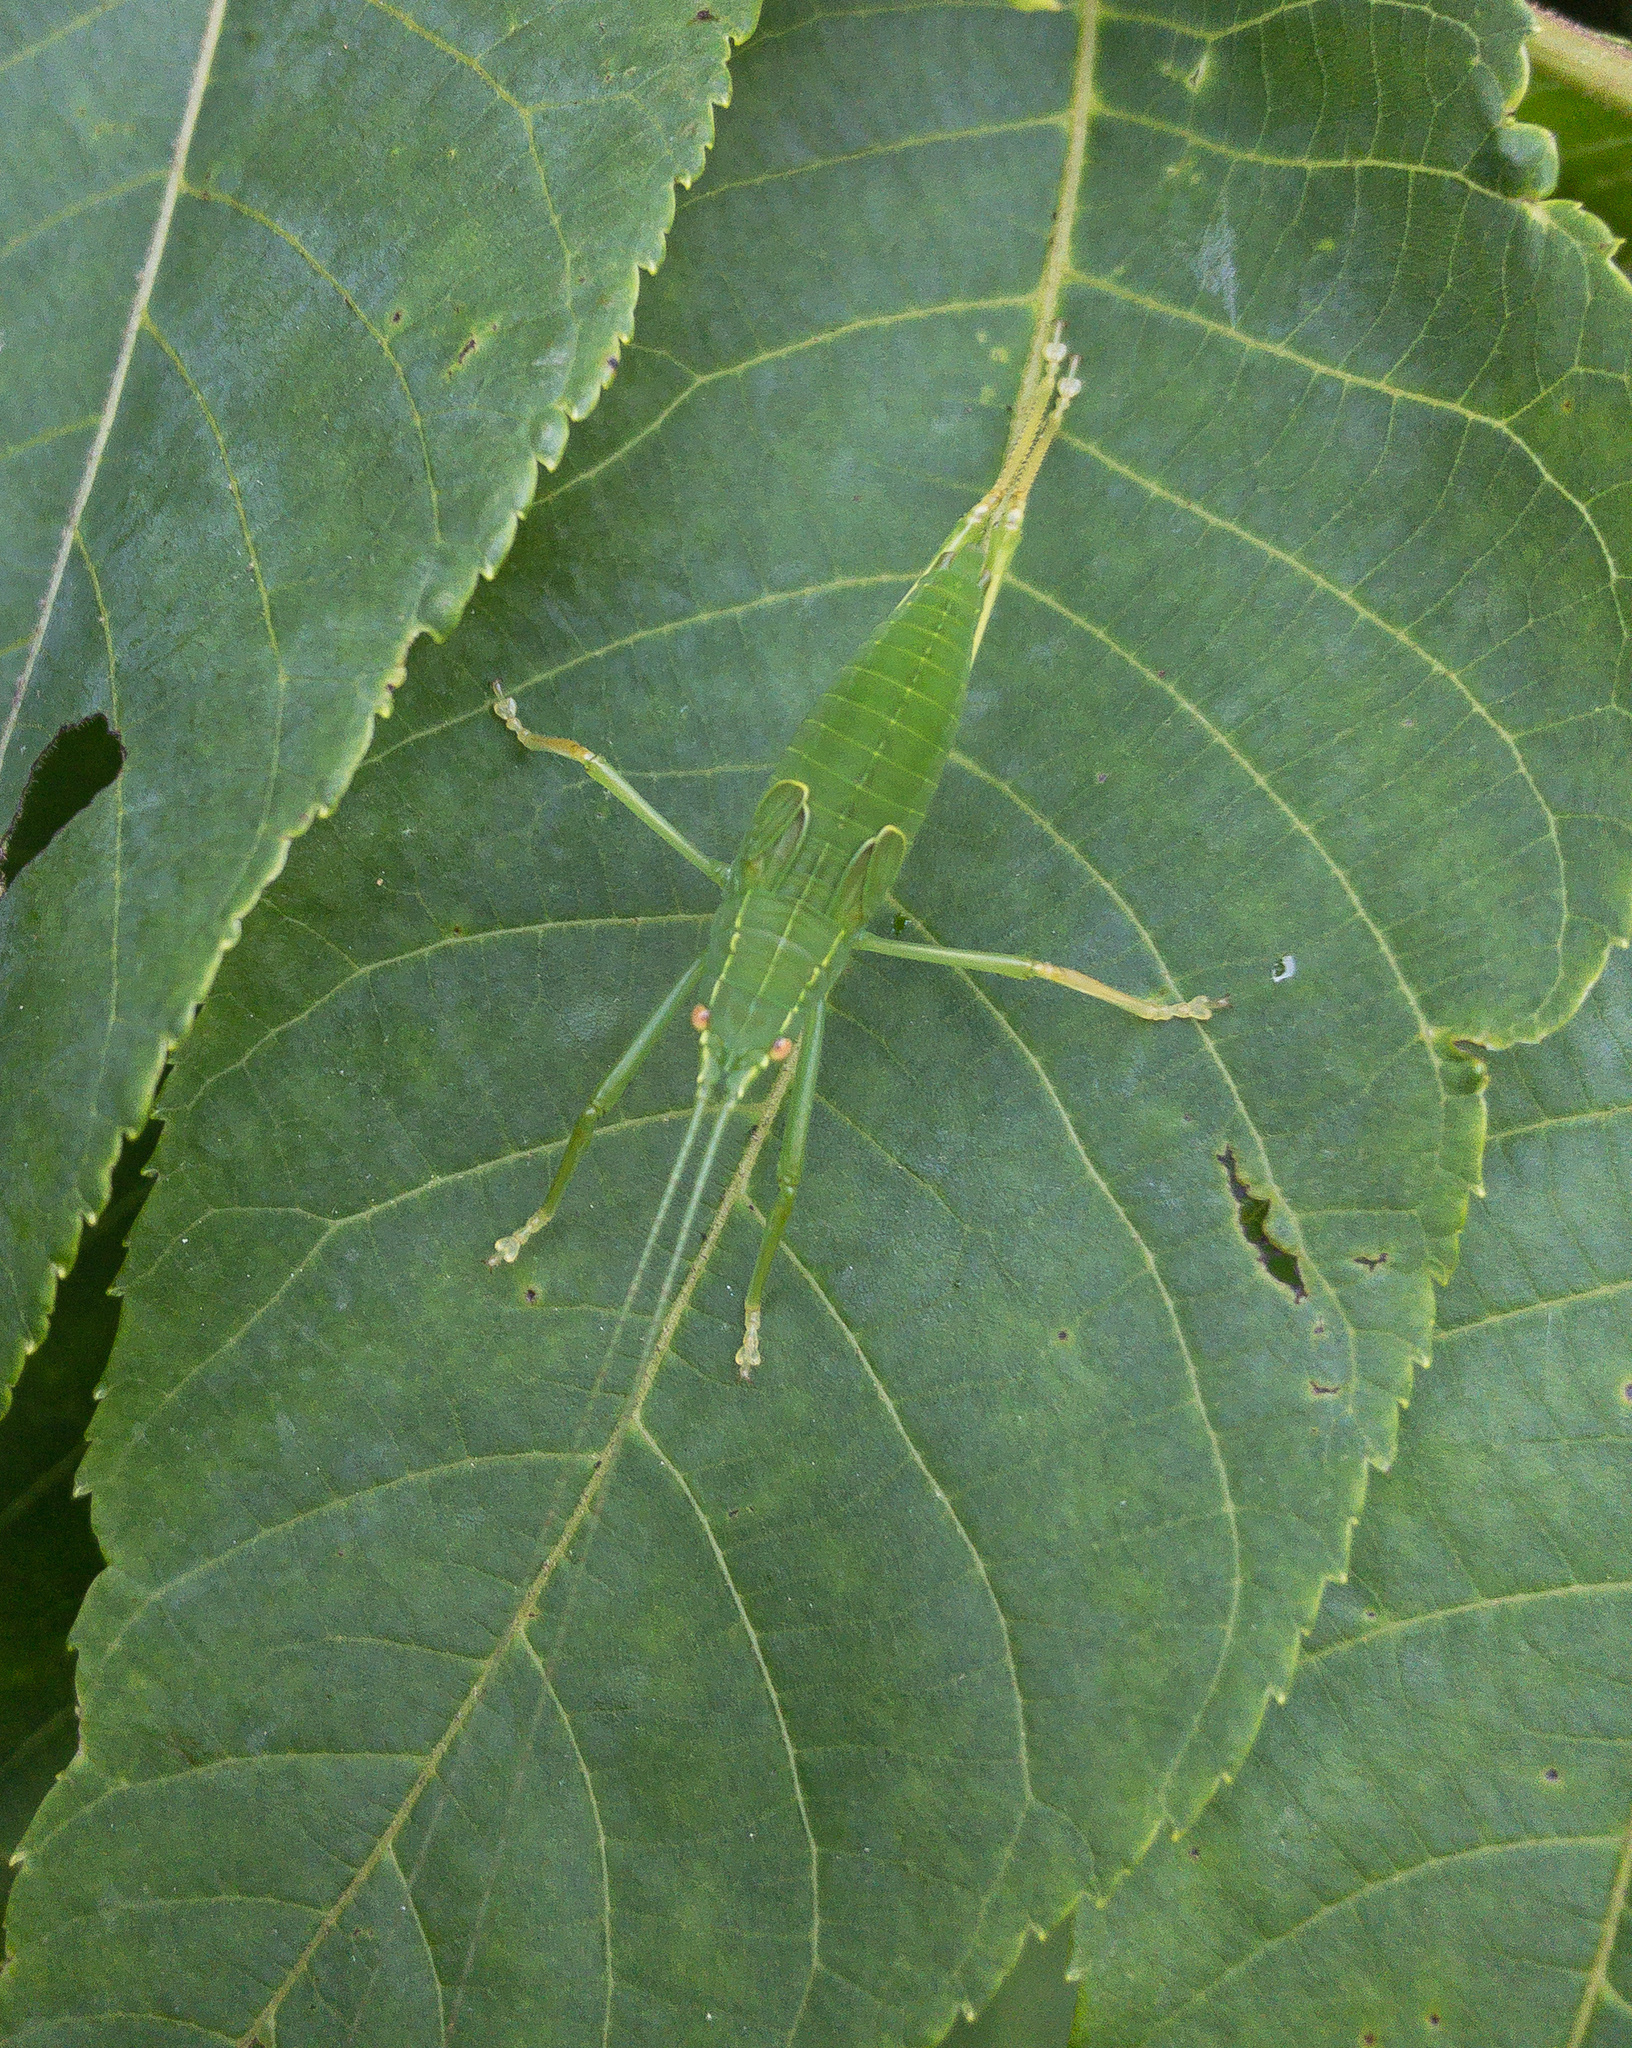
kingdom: Animalia
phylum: Arthropoda
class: Insecta
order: Orthoptera
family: Tettigoniidae
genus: Pterophylla
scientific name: Pterophylla camellifolia
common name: Common true katydid
